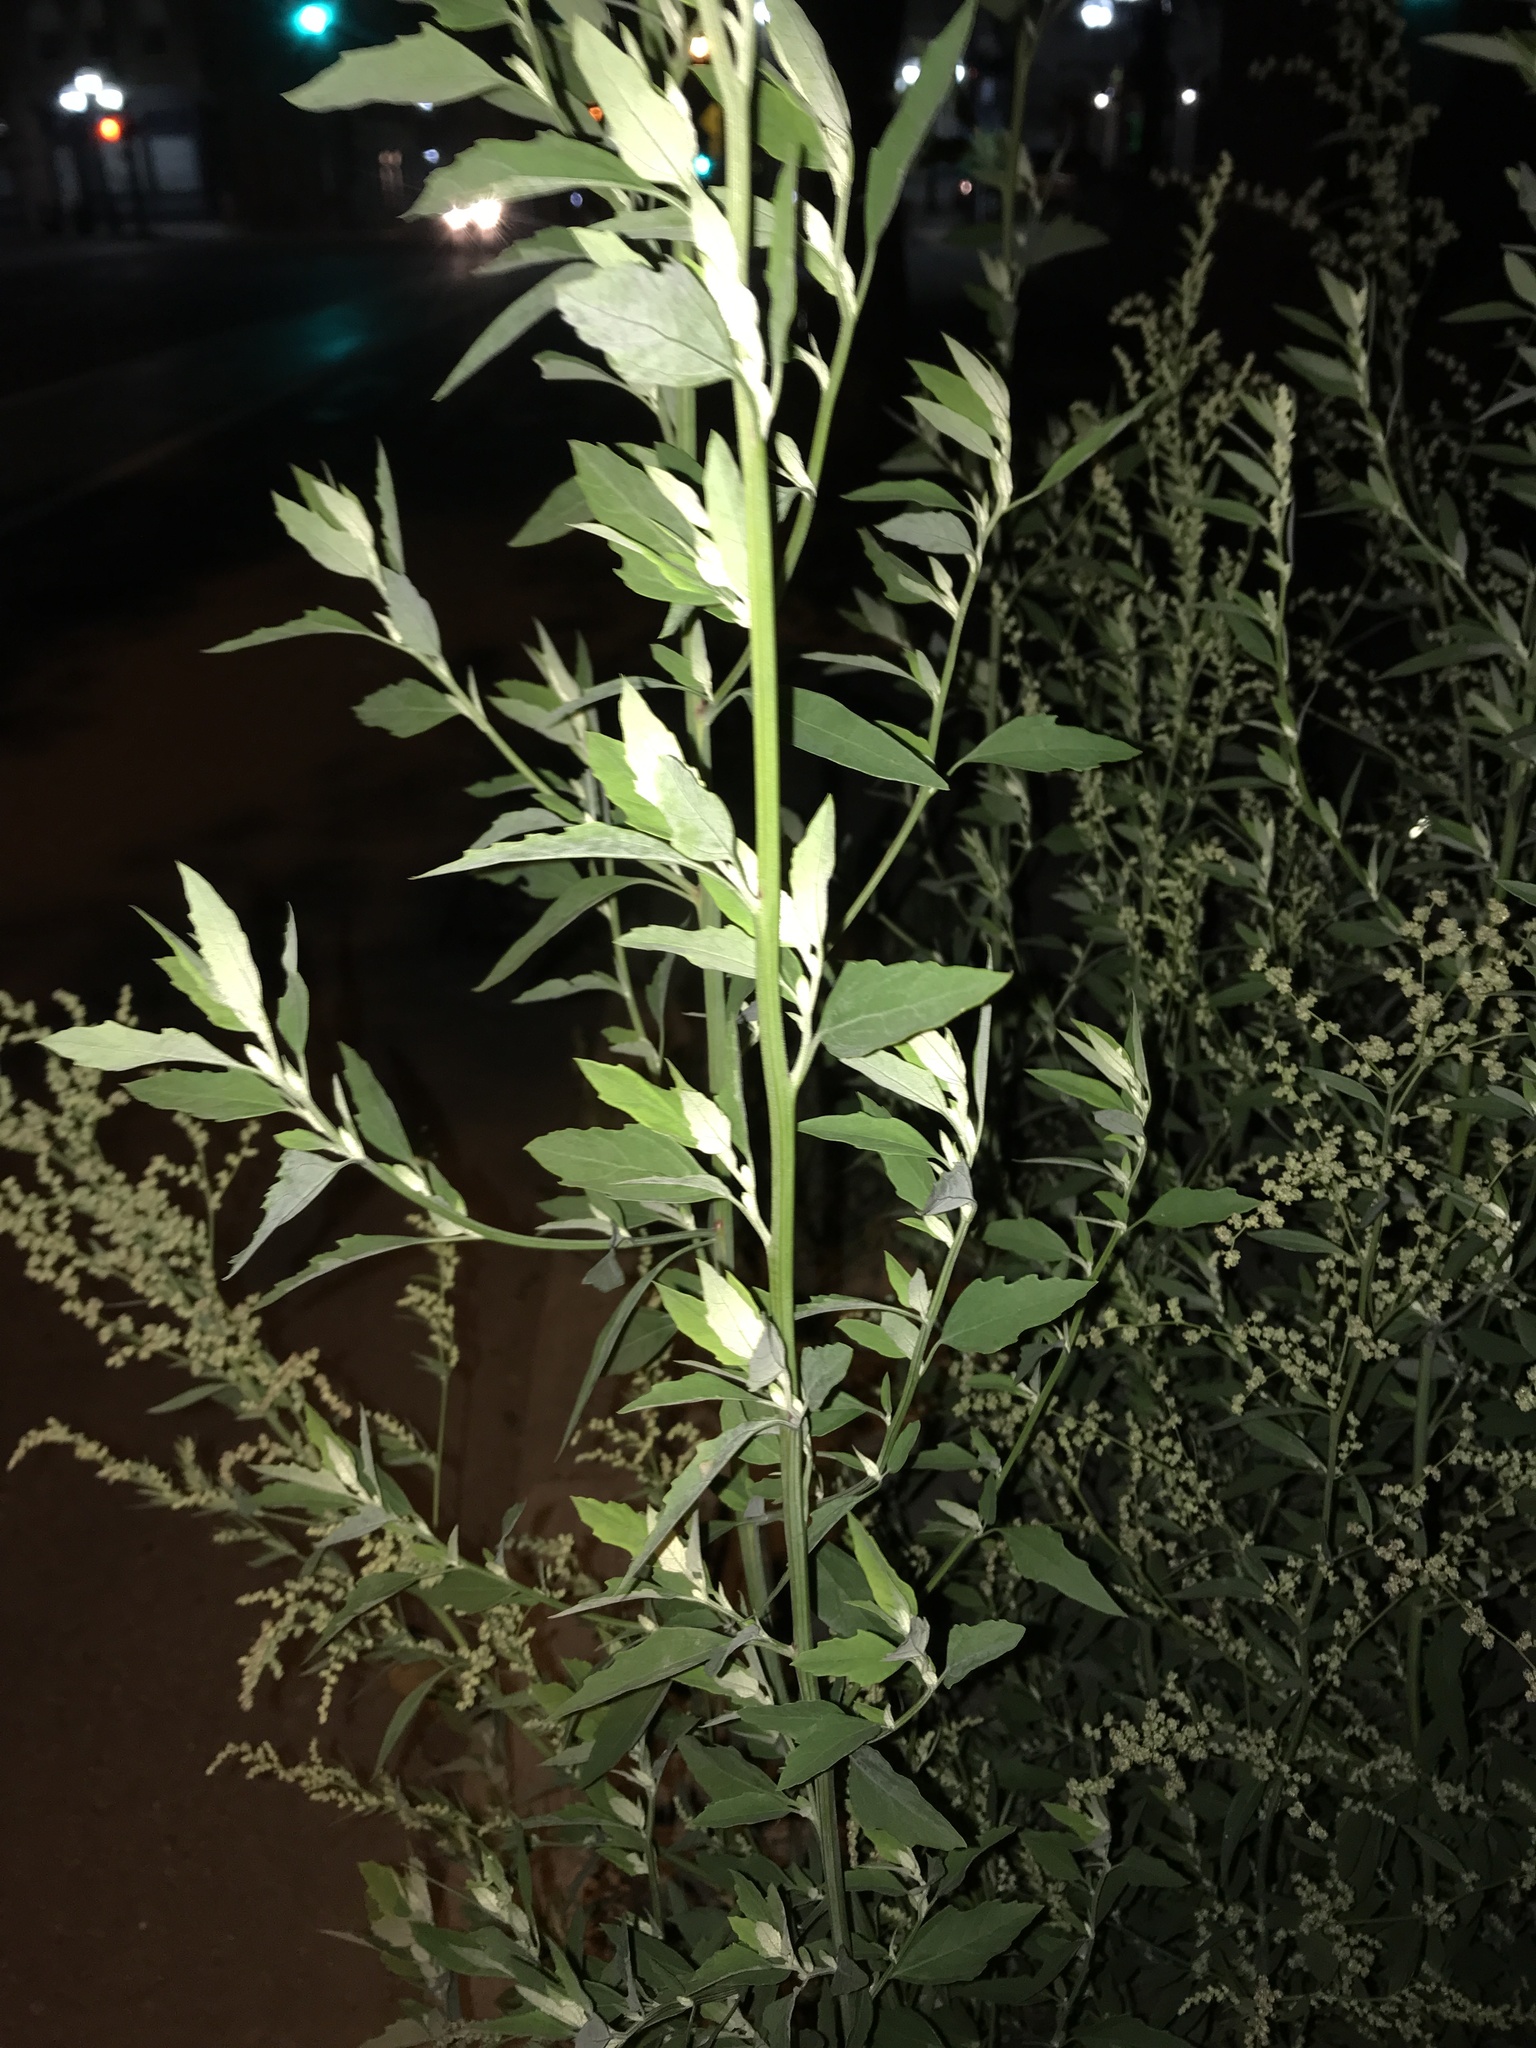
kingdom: Plantae
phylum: Tracheophyta
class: Magnoliopsida
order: Caryophyllales
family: Amaranthaceae
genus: Chenopodium
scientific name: Chenopodium album
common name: Fat-hen
